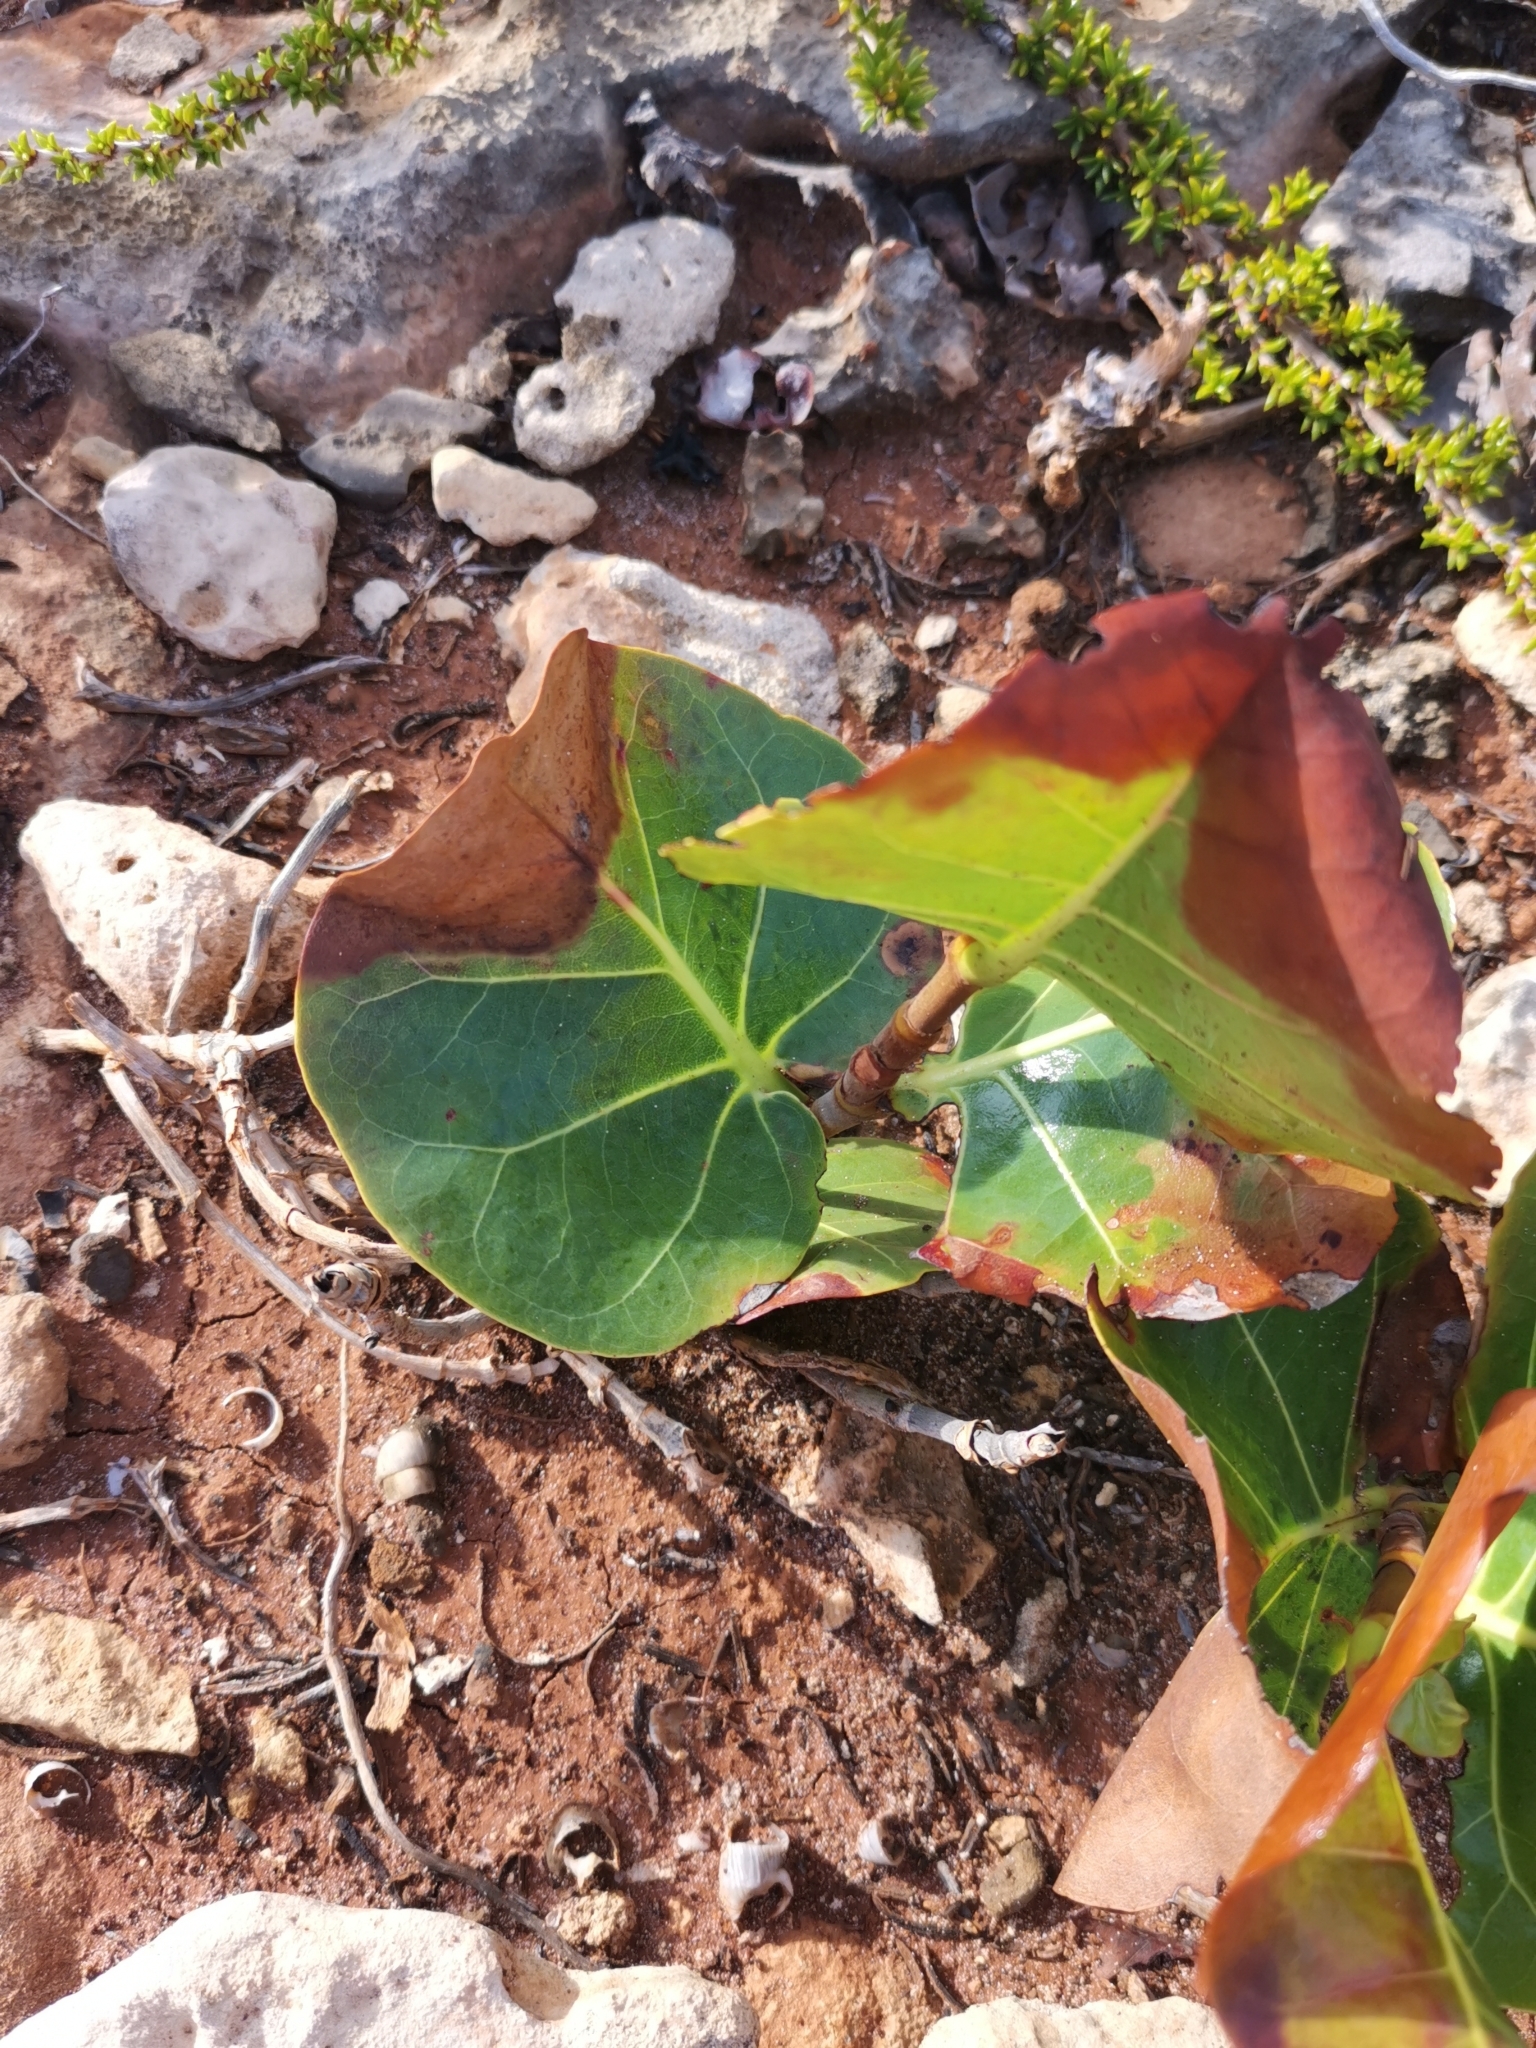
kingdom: Plantae
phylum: Tracheophyta
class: Magnoliopsida
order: Caryophyllales
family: Polygonaceae
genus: Coccoloba
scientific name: Coccoloba uvifera
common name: Seagrape
